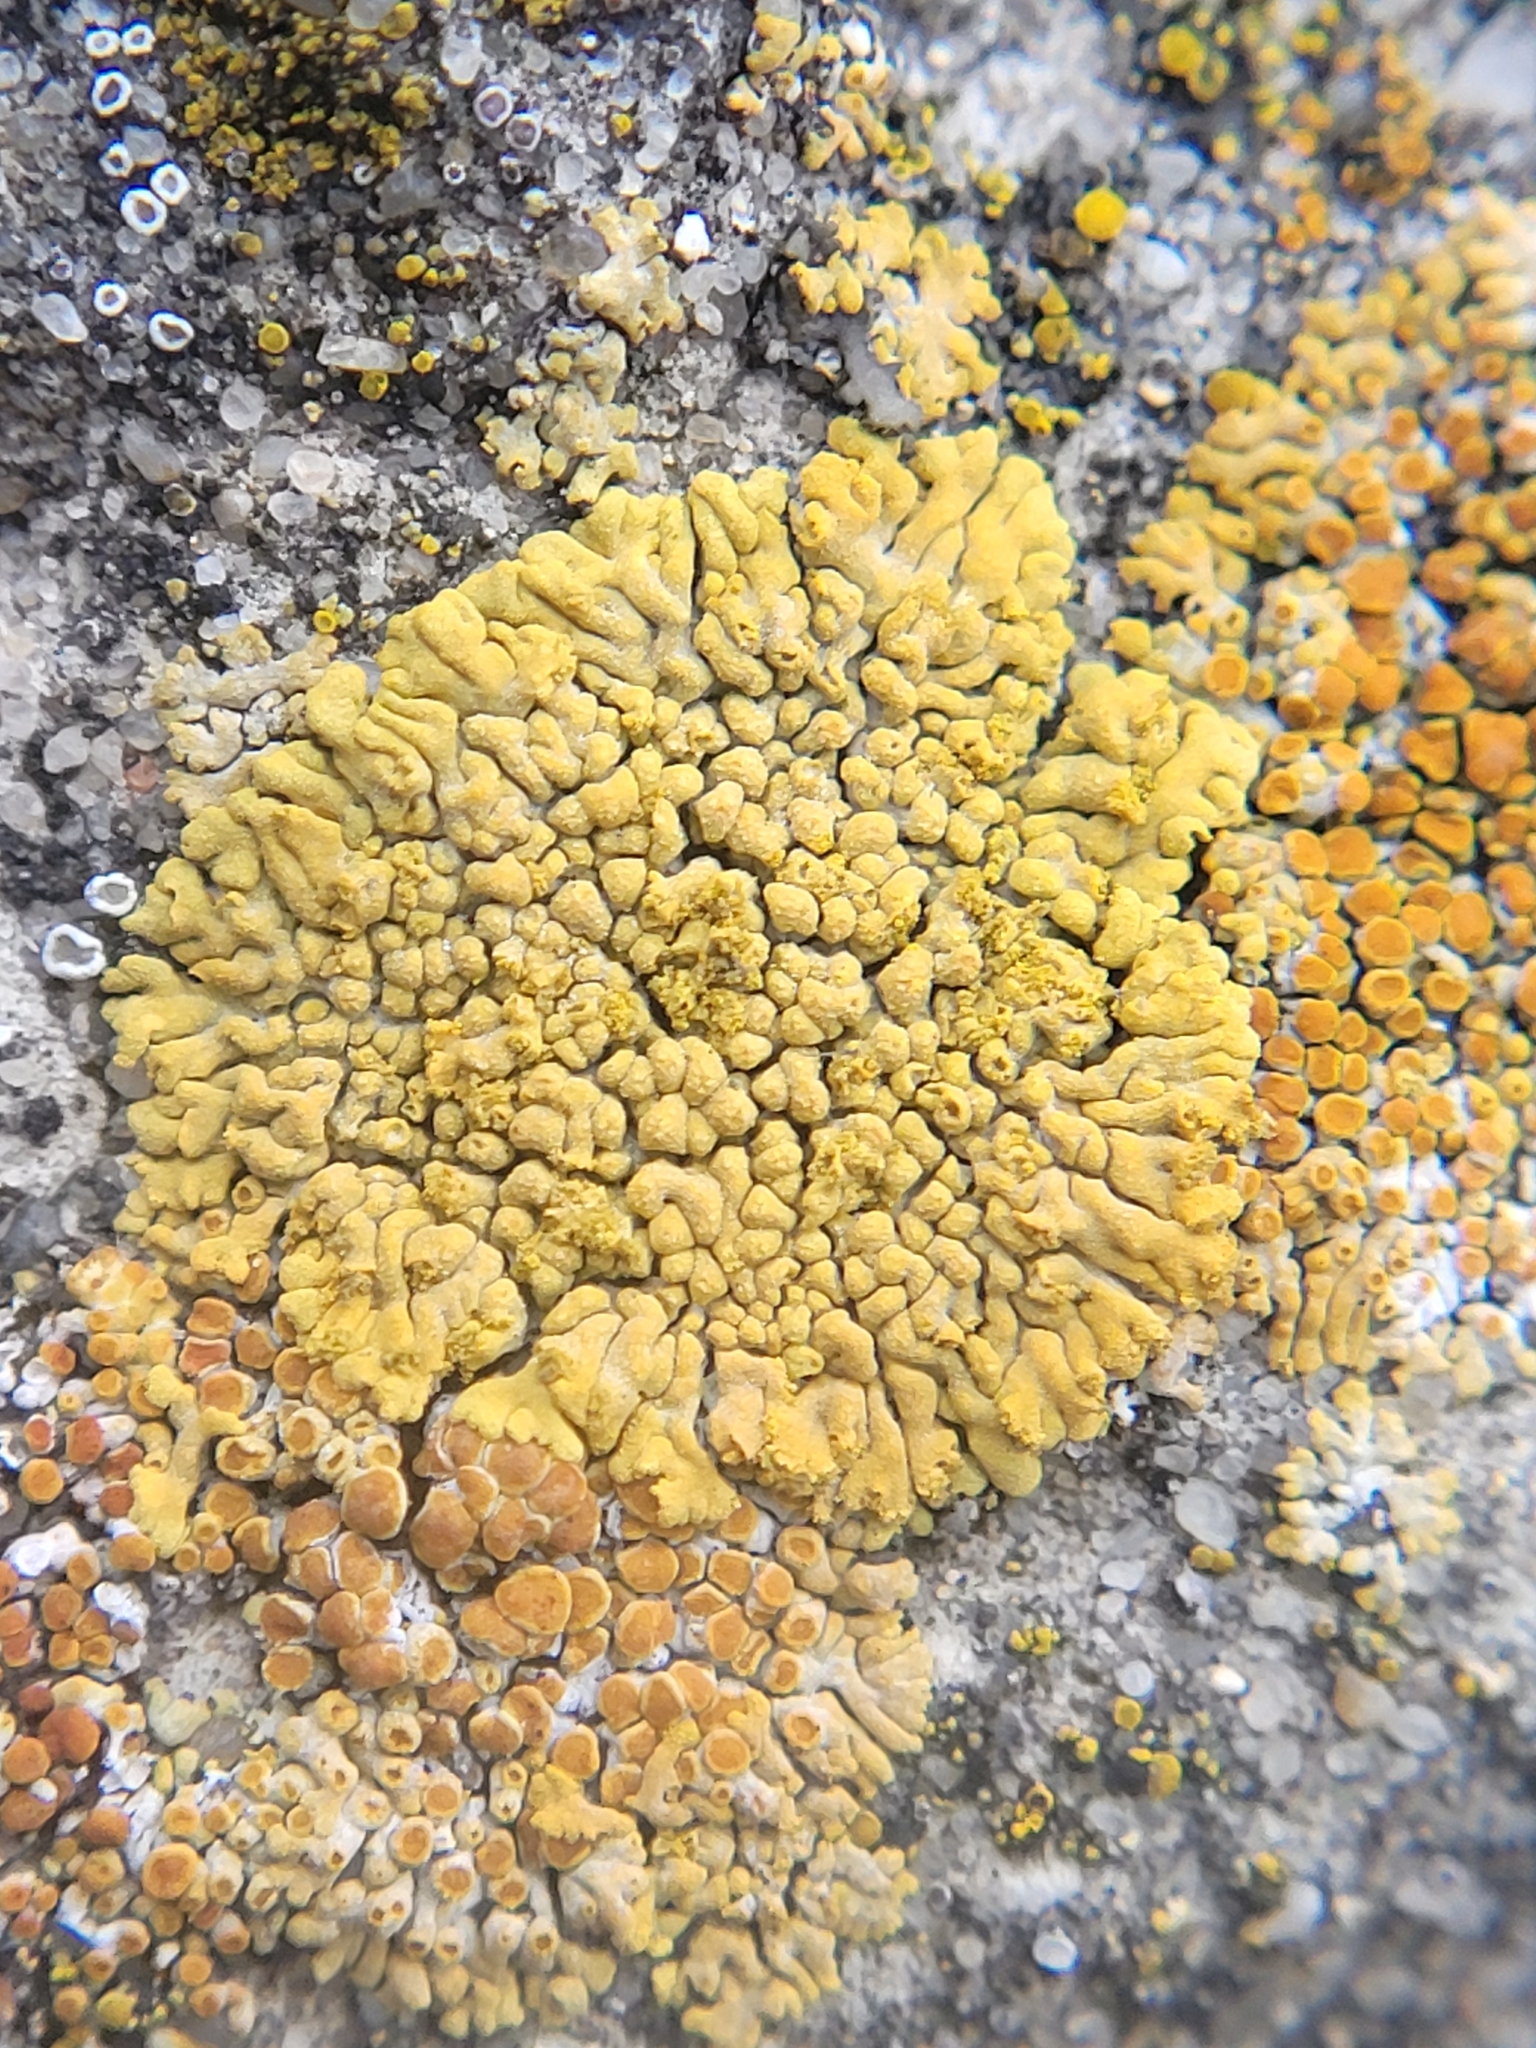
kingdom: Fungi
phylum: Ascomycota
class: Lecanoromycetes
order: Teloschistales
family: Teloschistaceae
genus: Calogaya
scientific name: Calogaya decipiens
